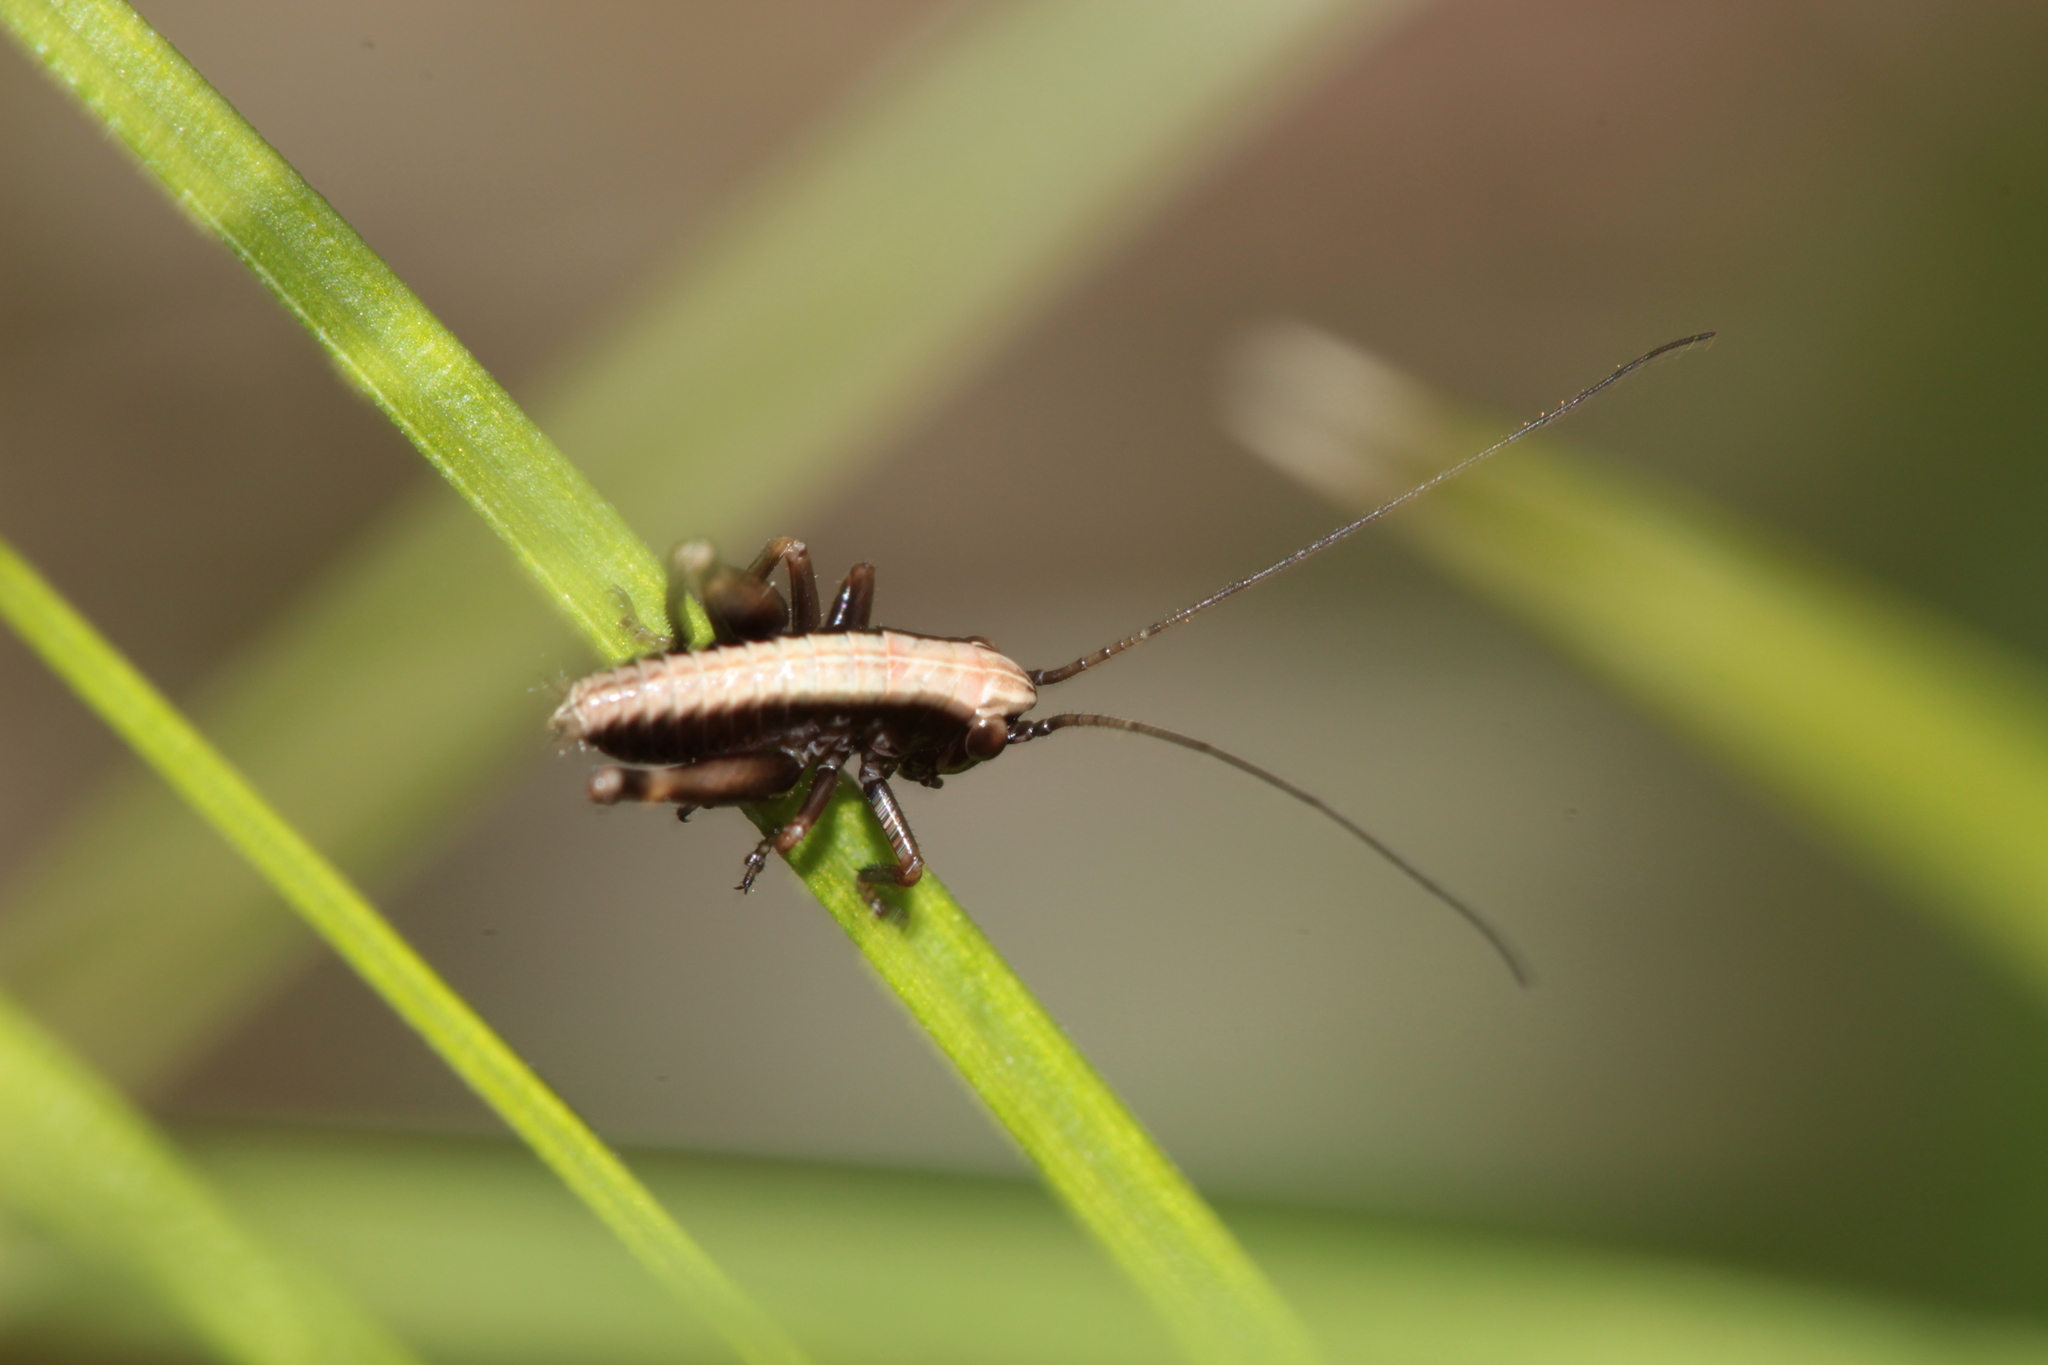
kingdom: Animalia
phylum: Arthropoda
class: Insecta
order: Orthoptera
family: Tettigoniidae
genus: Pholidoptera
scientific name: Pholidoptera griseoaptera
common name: Dark bush-cricket
